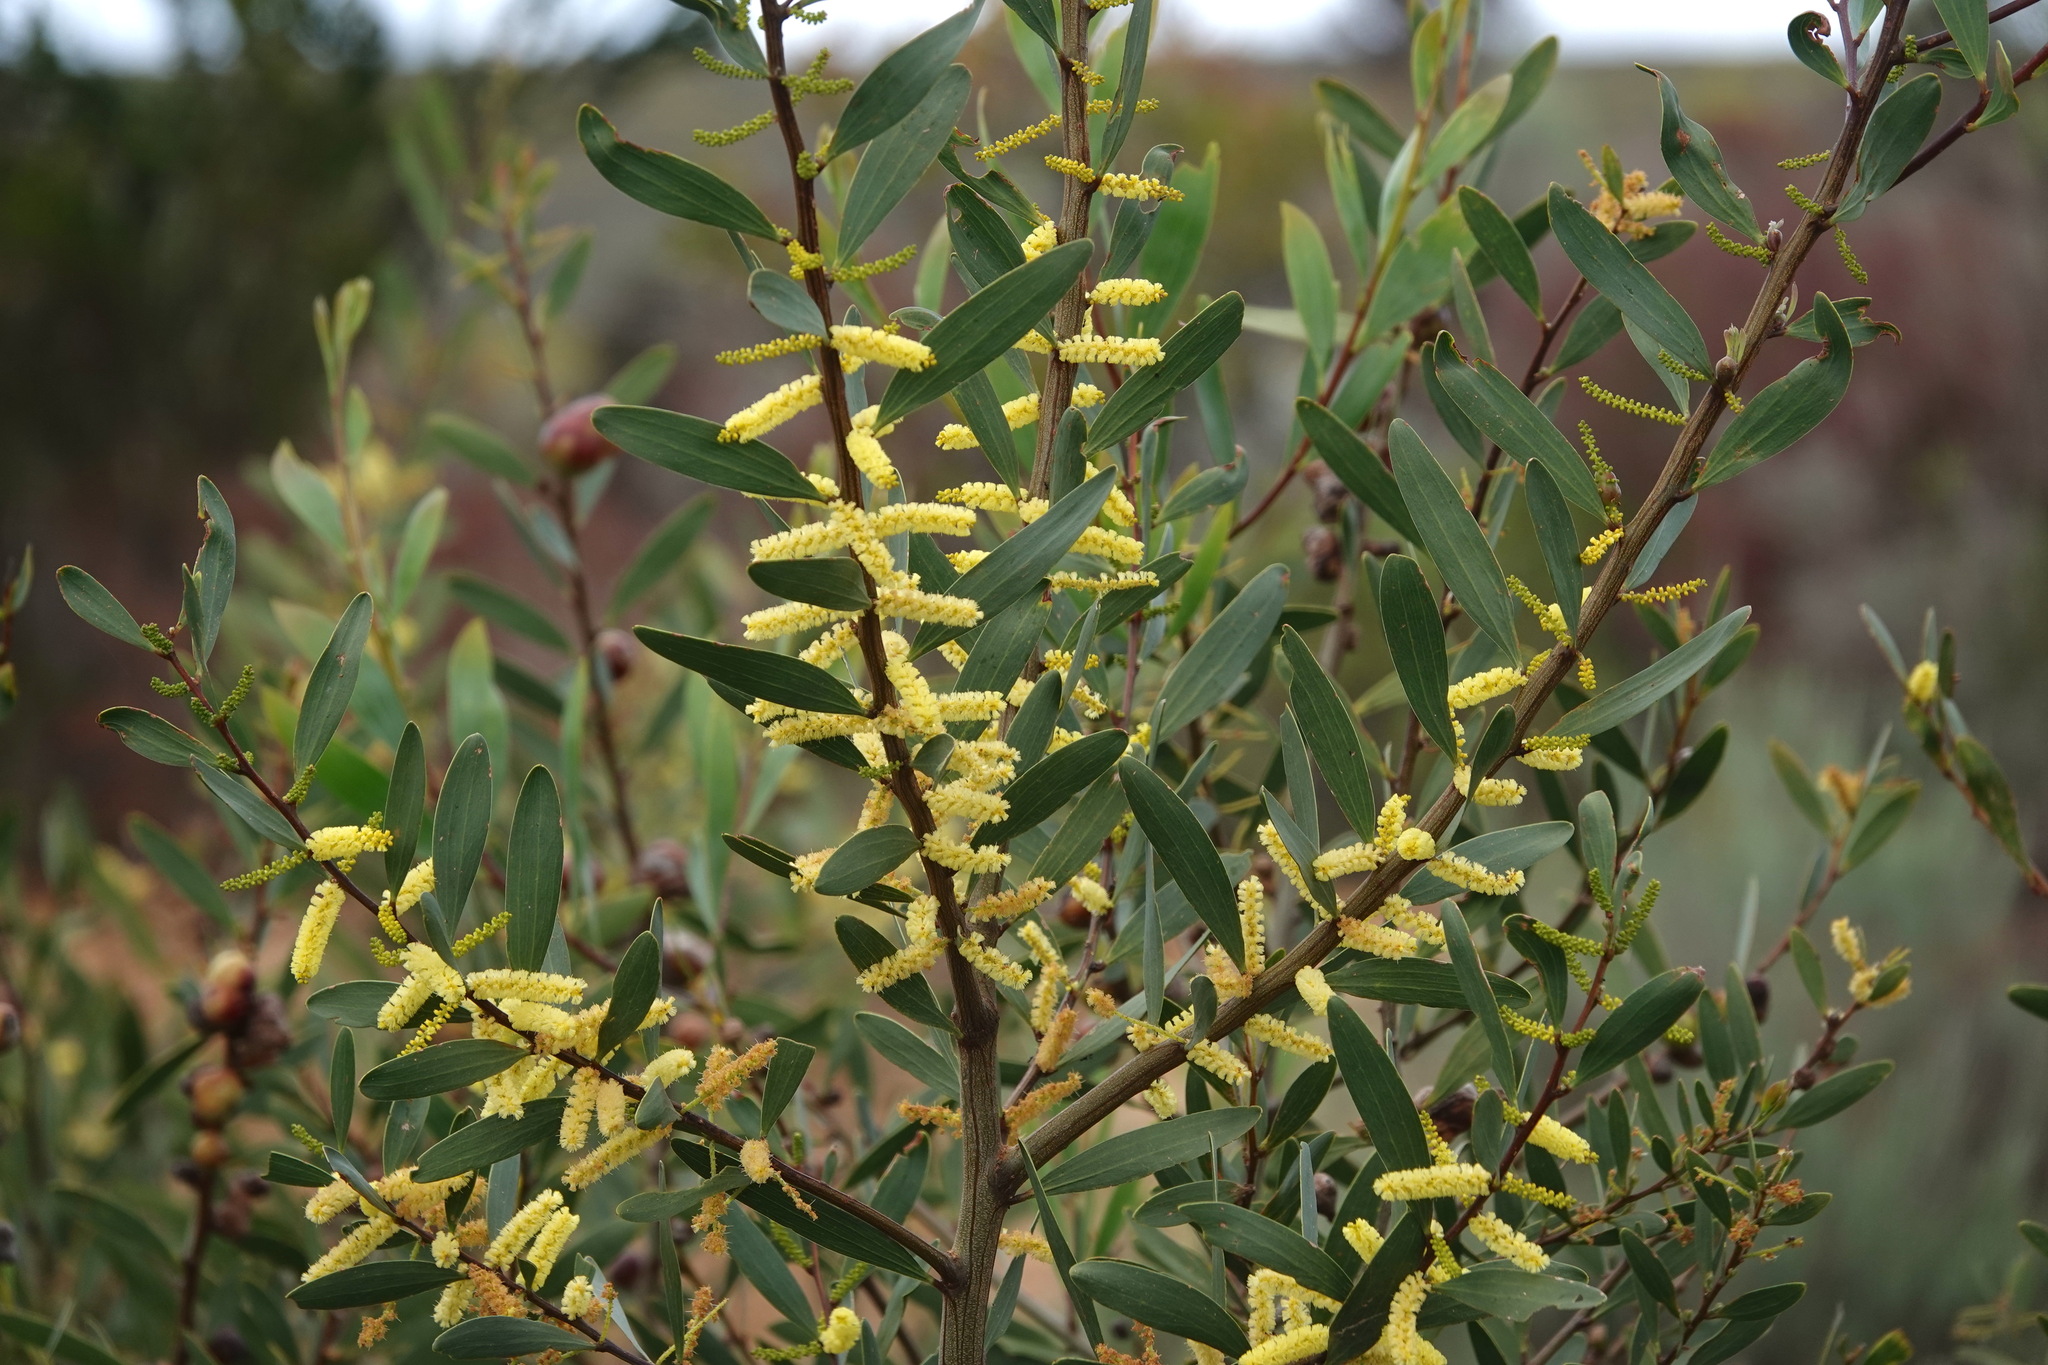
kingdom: Plantae
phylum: Tracheophyta
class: Magnoliopsida
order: Fabales
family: Fabaceae
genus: Acacia
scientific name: Acacia longifolia
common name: Sydney golden wattle
